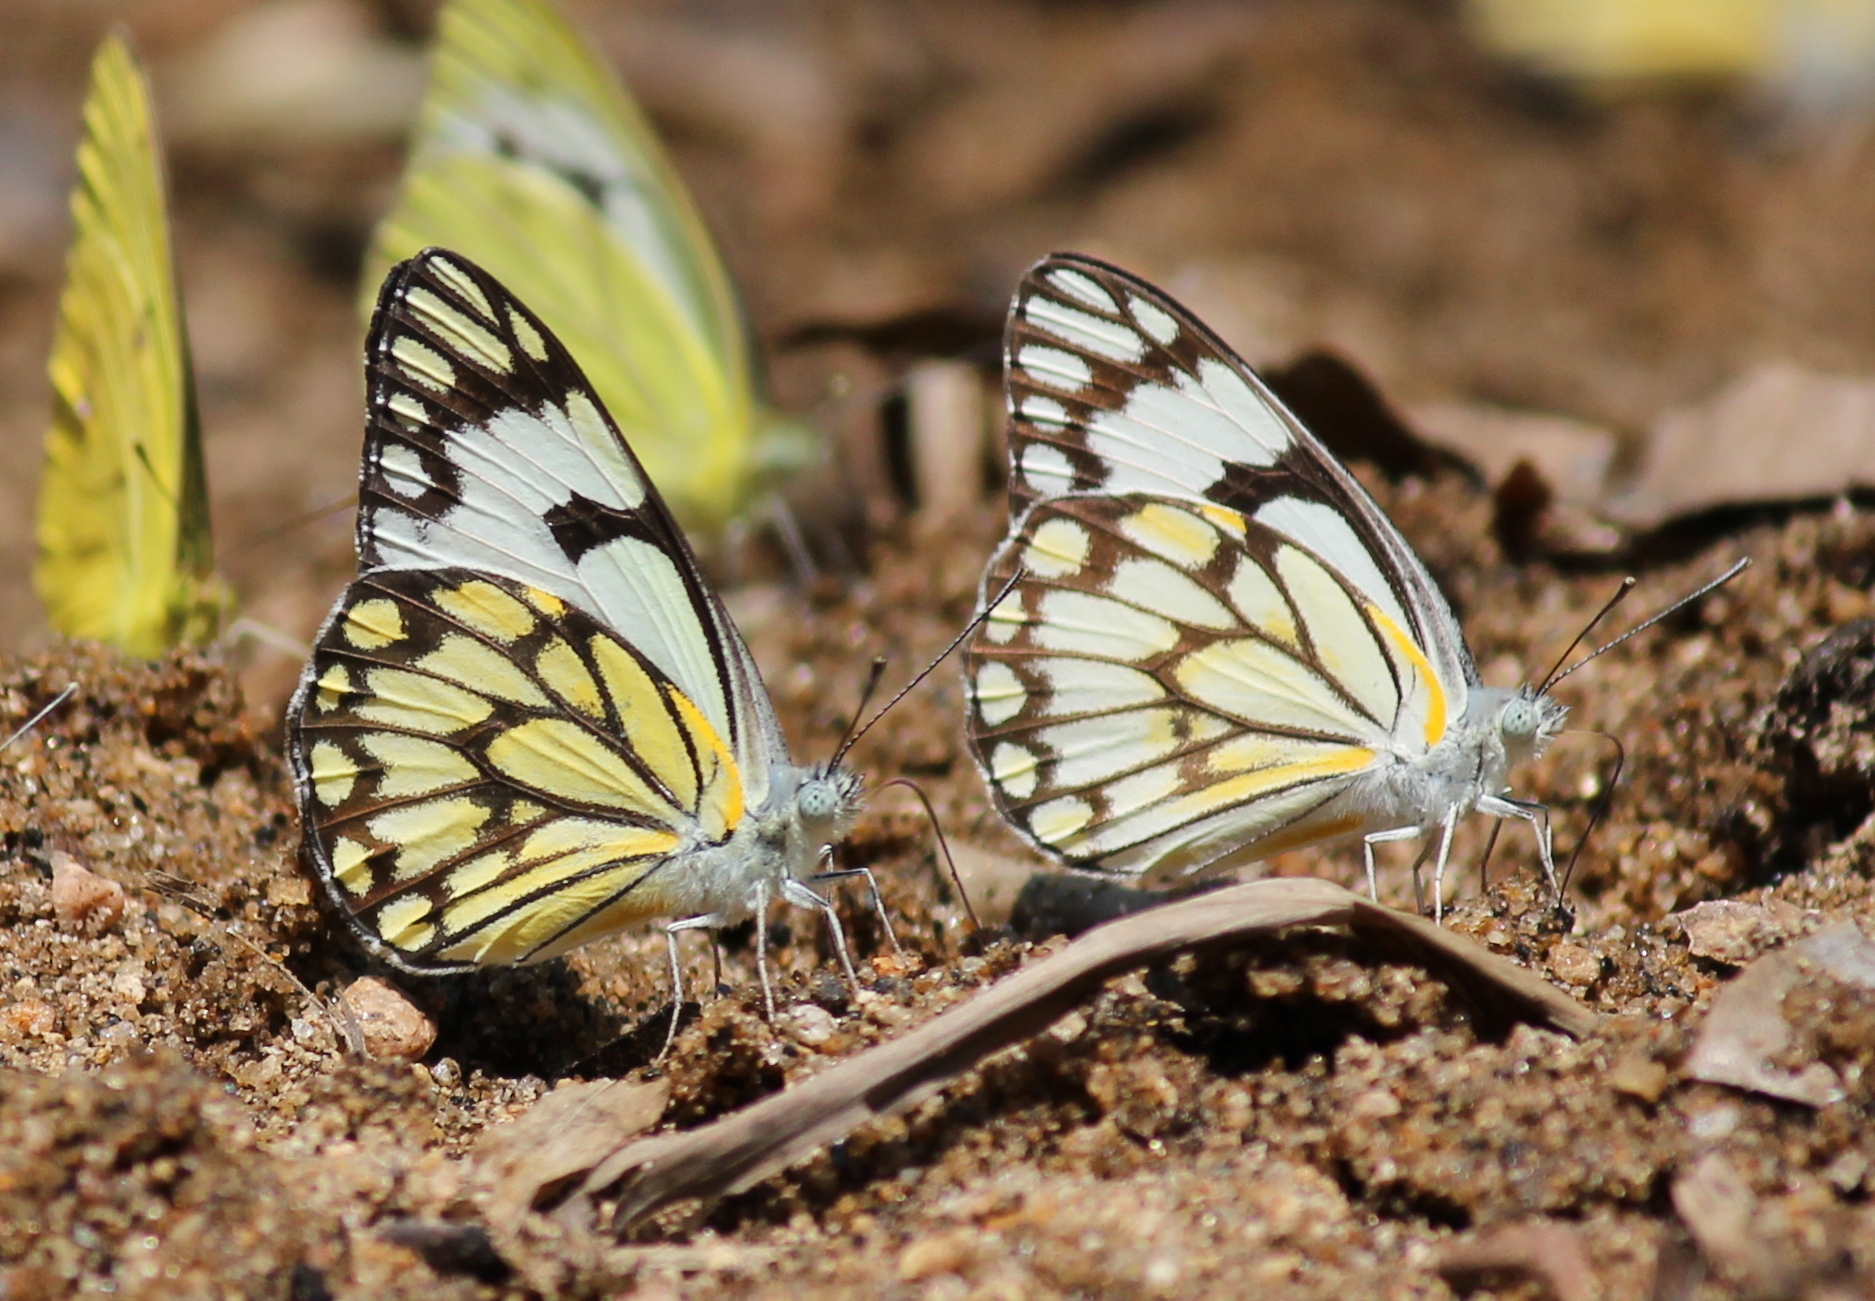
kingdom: Animalia
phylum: Arthropoda
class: Insecta
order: Lepidoptera
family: Pieridae
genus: Belenois
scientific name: Belenois aurota
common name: Brown-veined white
